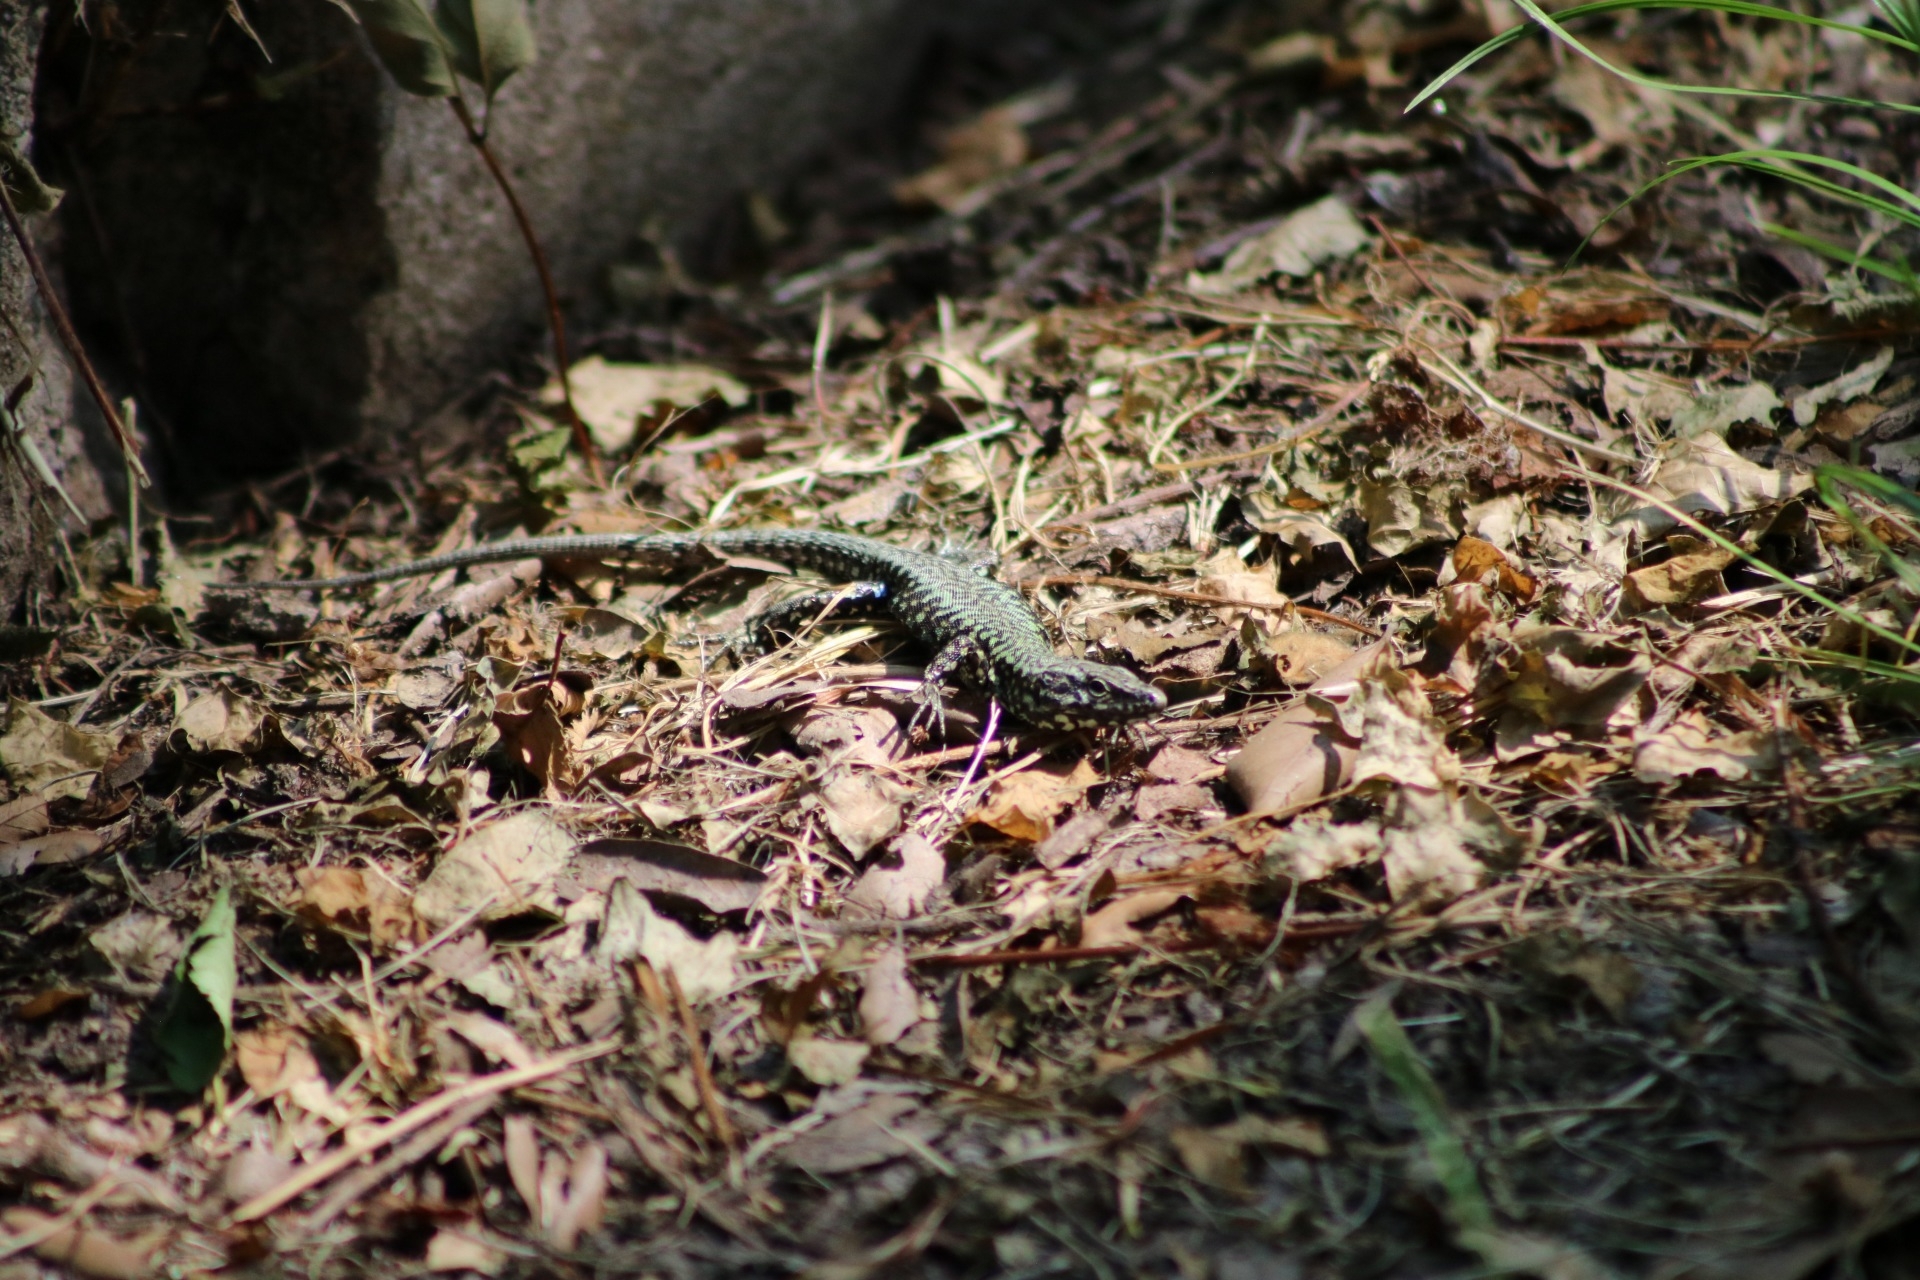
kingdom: Animalia
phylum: Chordata
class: Squamata
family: Lacertidae
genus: Podarcis
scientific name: Podarcis muralis
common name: Common wall lizard
